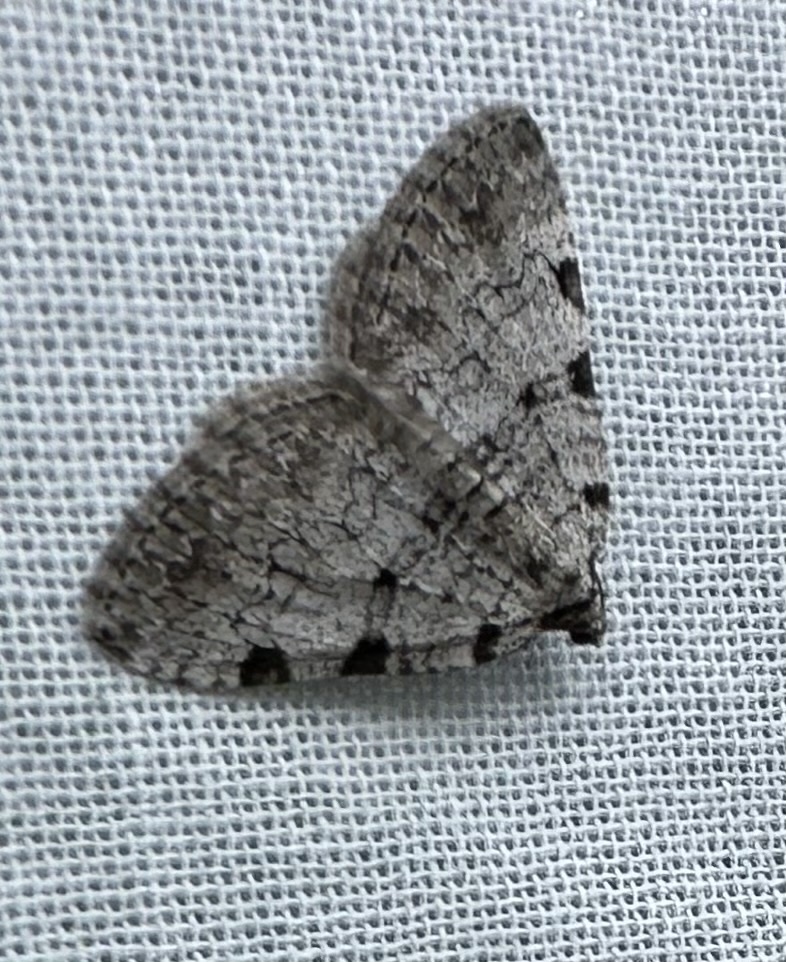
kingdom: Animalia
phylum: Arthropoda
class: Insecta
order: Lepidoptera
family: Geometridae
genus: Perizoma
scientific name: Perizoma costiguttata
